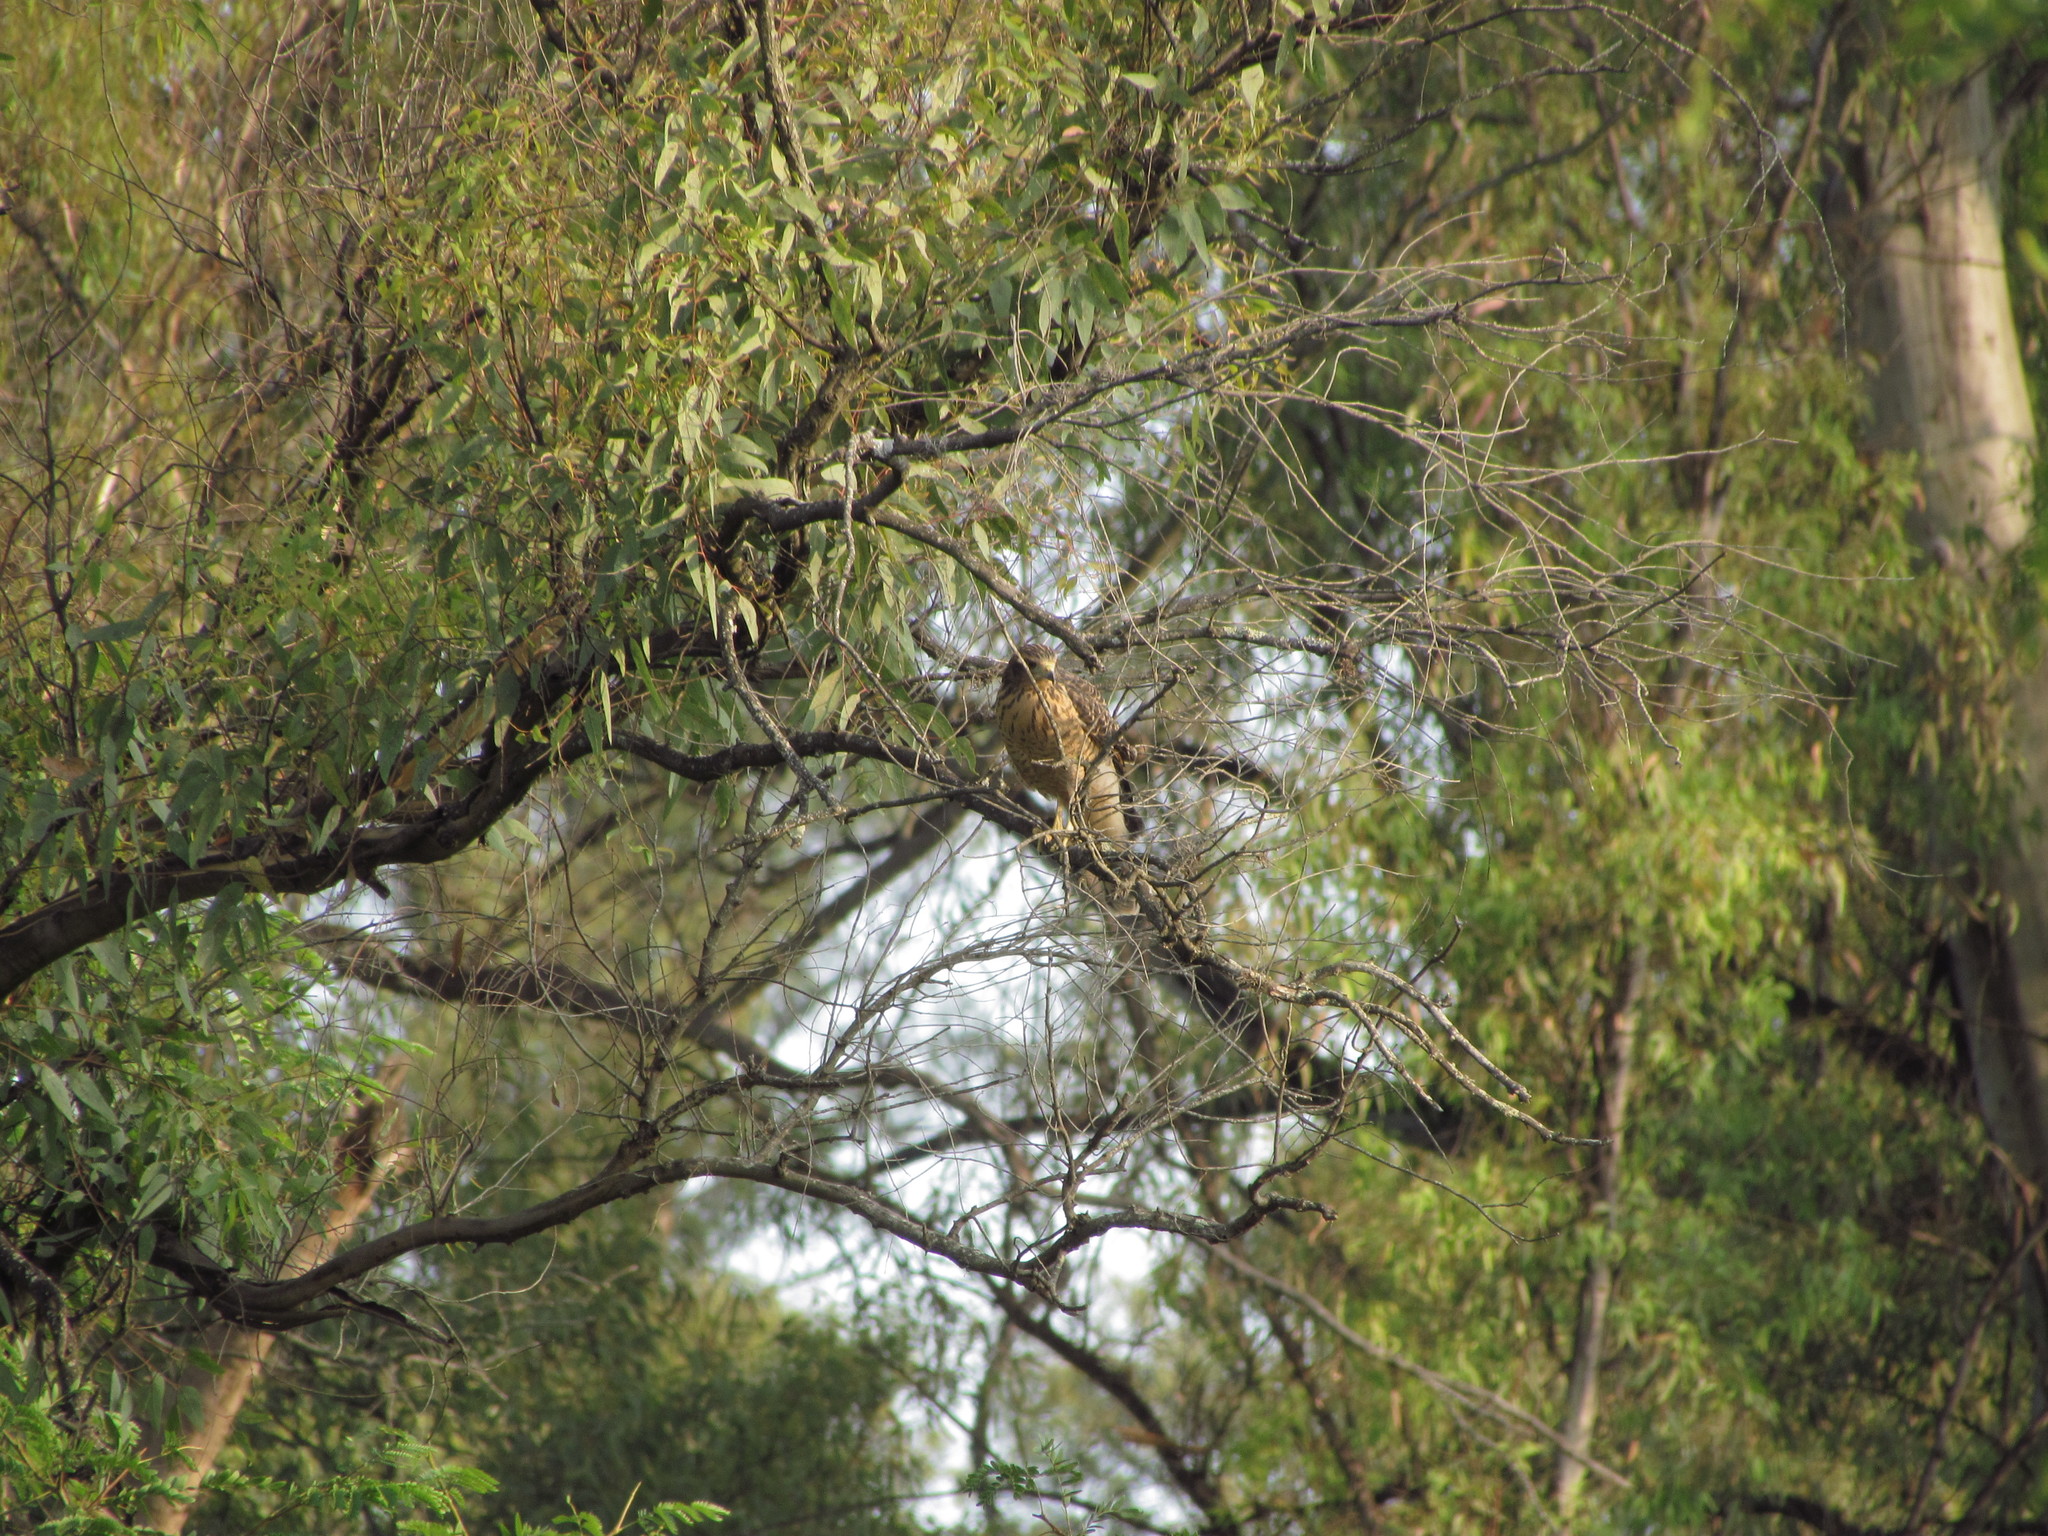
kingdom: Animalia
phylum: Chordata
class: Aves
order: Accipitriformes
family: Accipitridae
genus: Rupornis
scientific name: Rupornis magnirostris
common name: Roadside hawk
